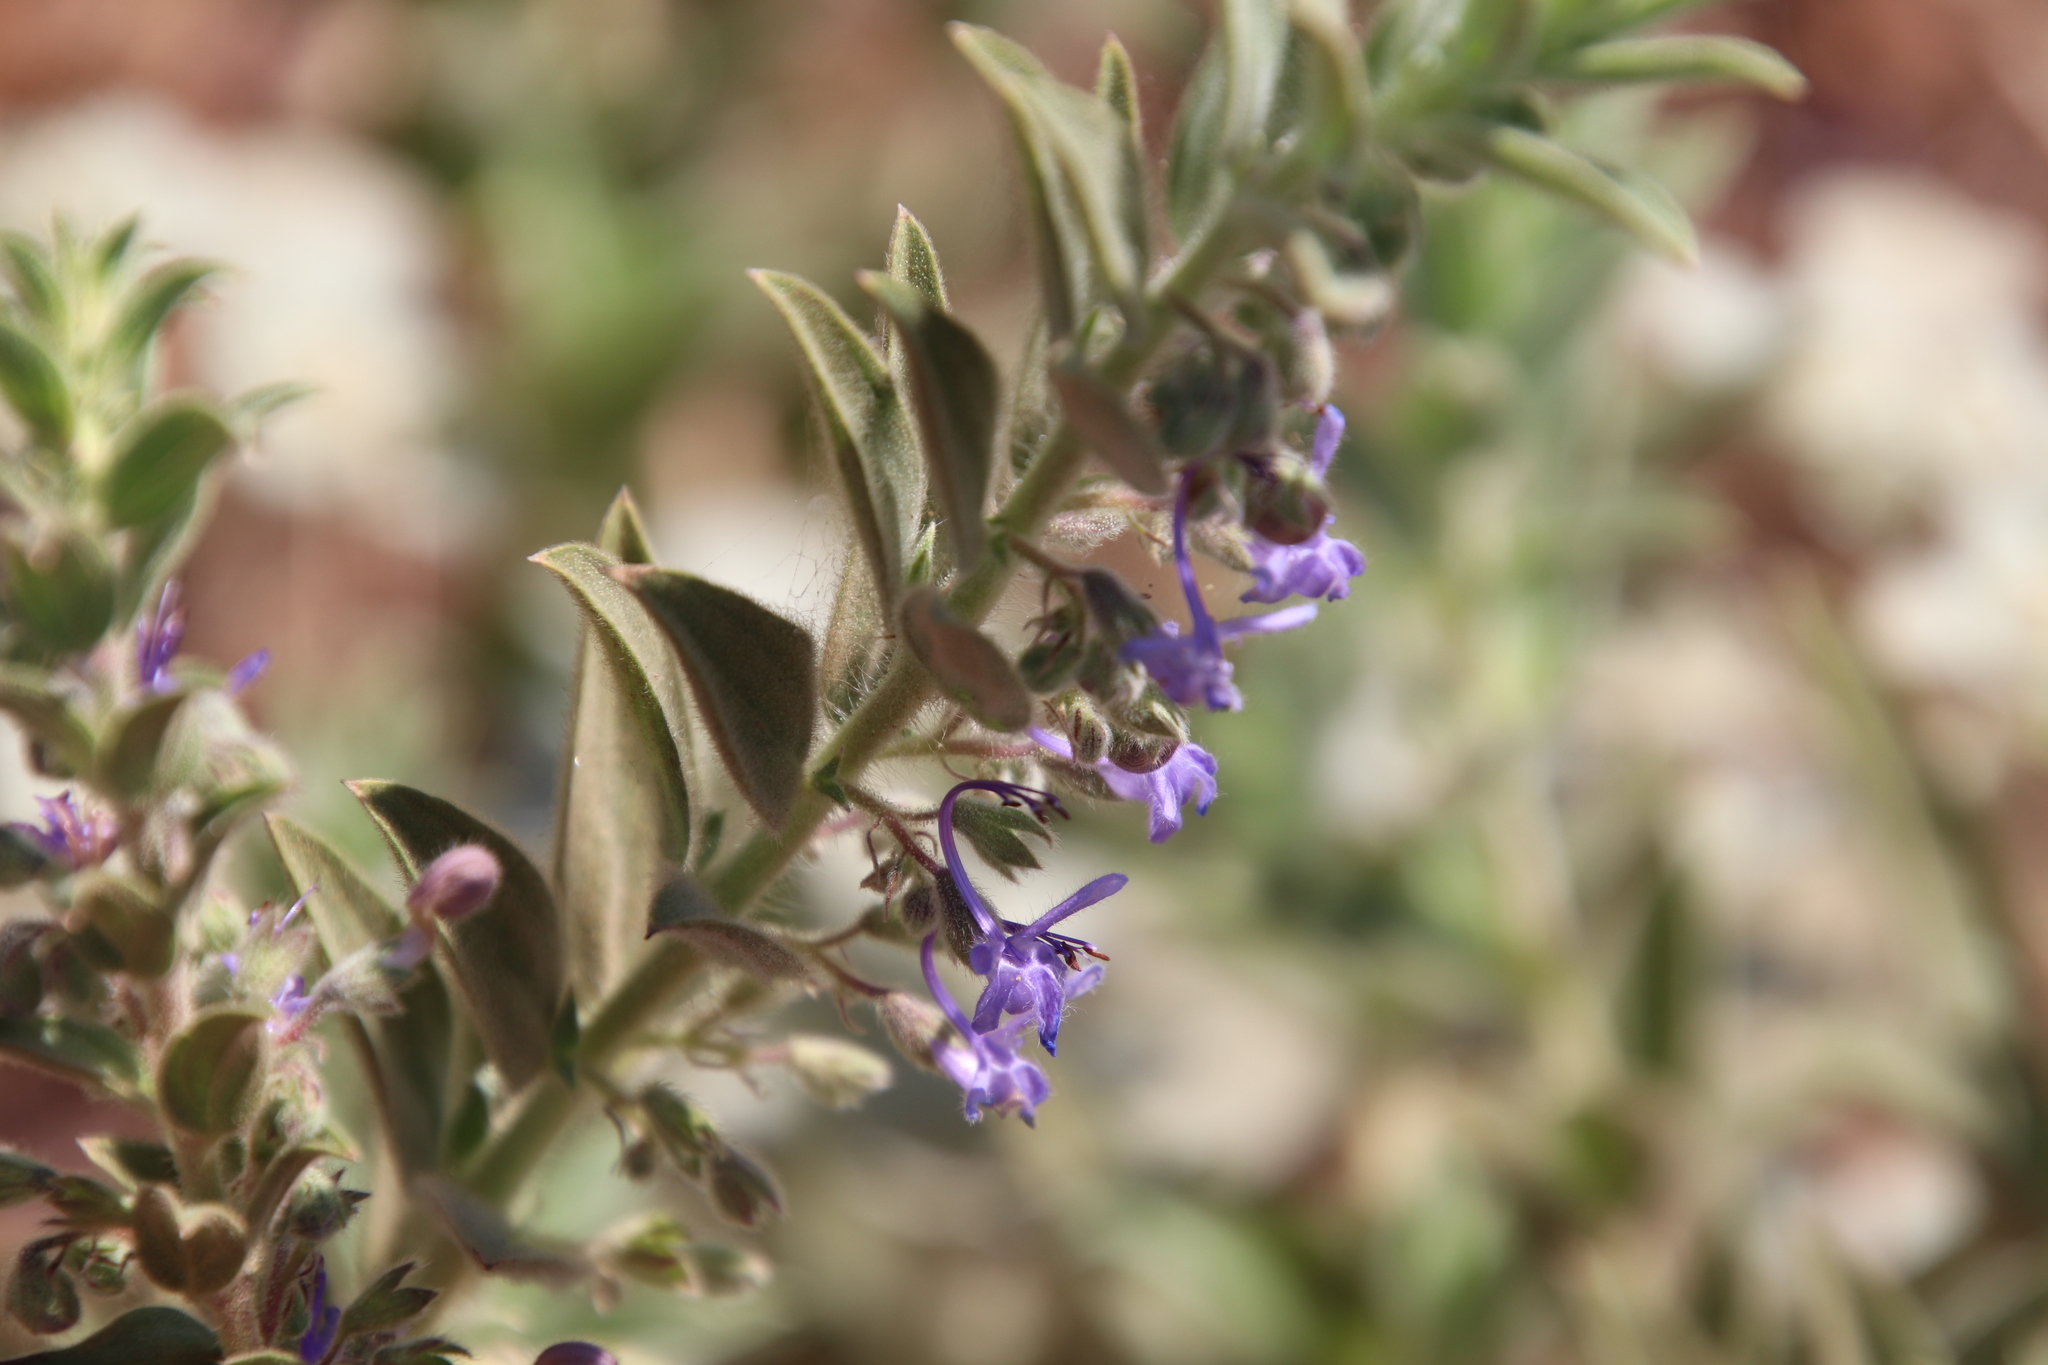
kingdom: Plantae
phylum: Tracheophyta
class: Magnoliopsida
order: Lamiales
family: Lamiaceae
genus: Trichostema
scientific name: Trichostema lanceolatum
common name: Vinegar-weed
